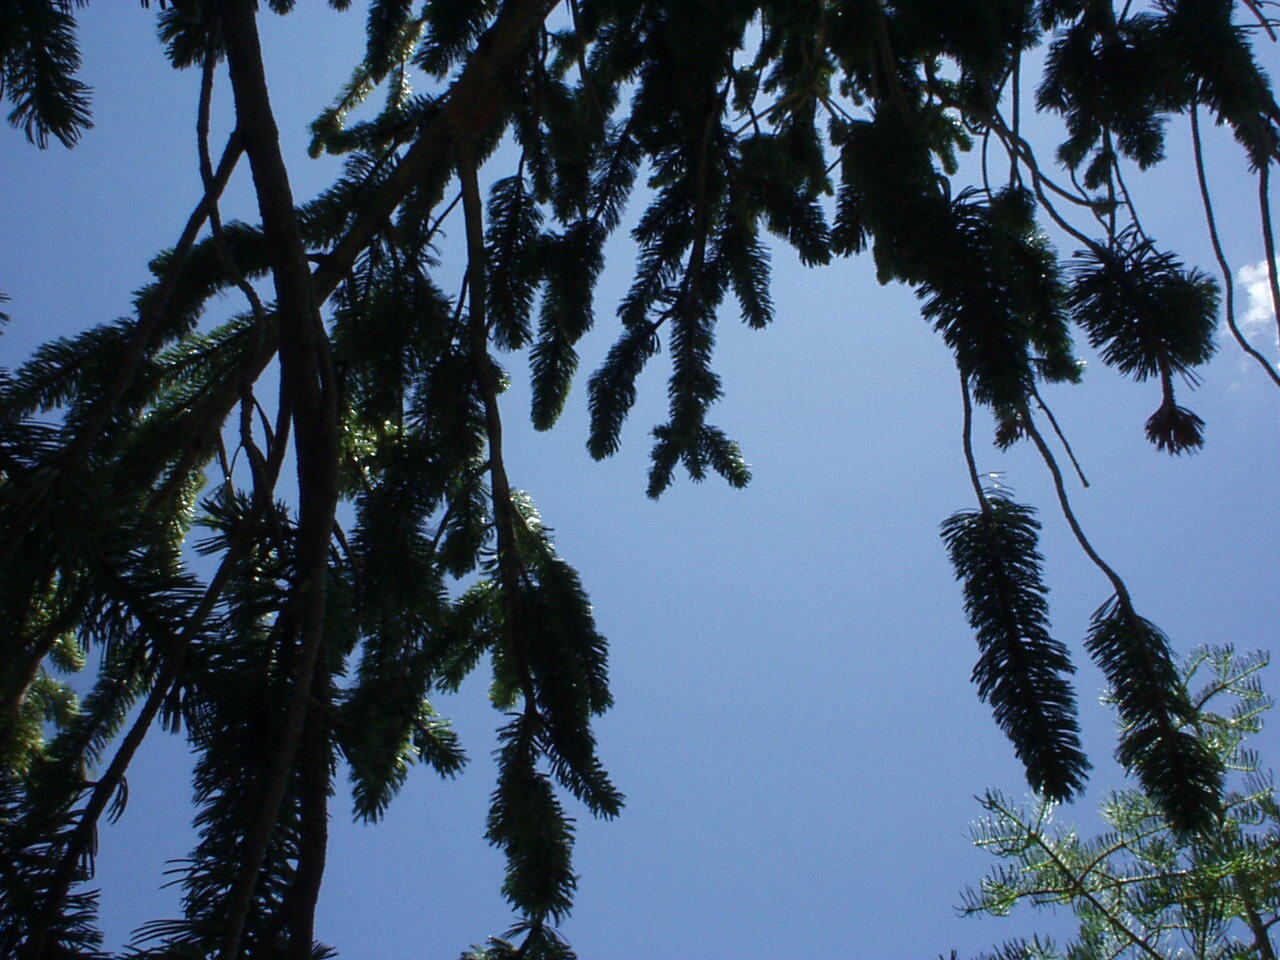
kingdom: Plantae
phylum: Tracheophyta
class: Pinopsida
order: Pinales
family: Pinaceae
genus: Pinus
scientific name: Pinus longaeva
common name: Intermountain bristlecone pine
